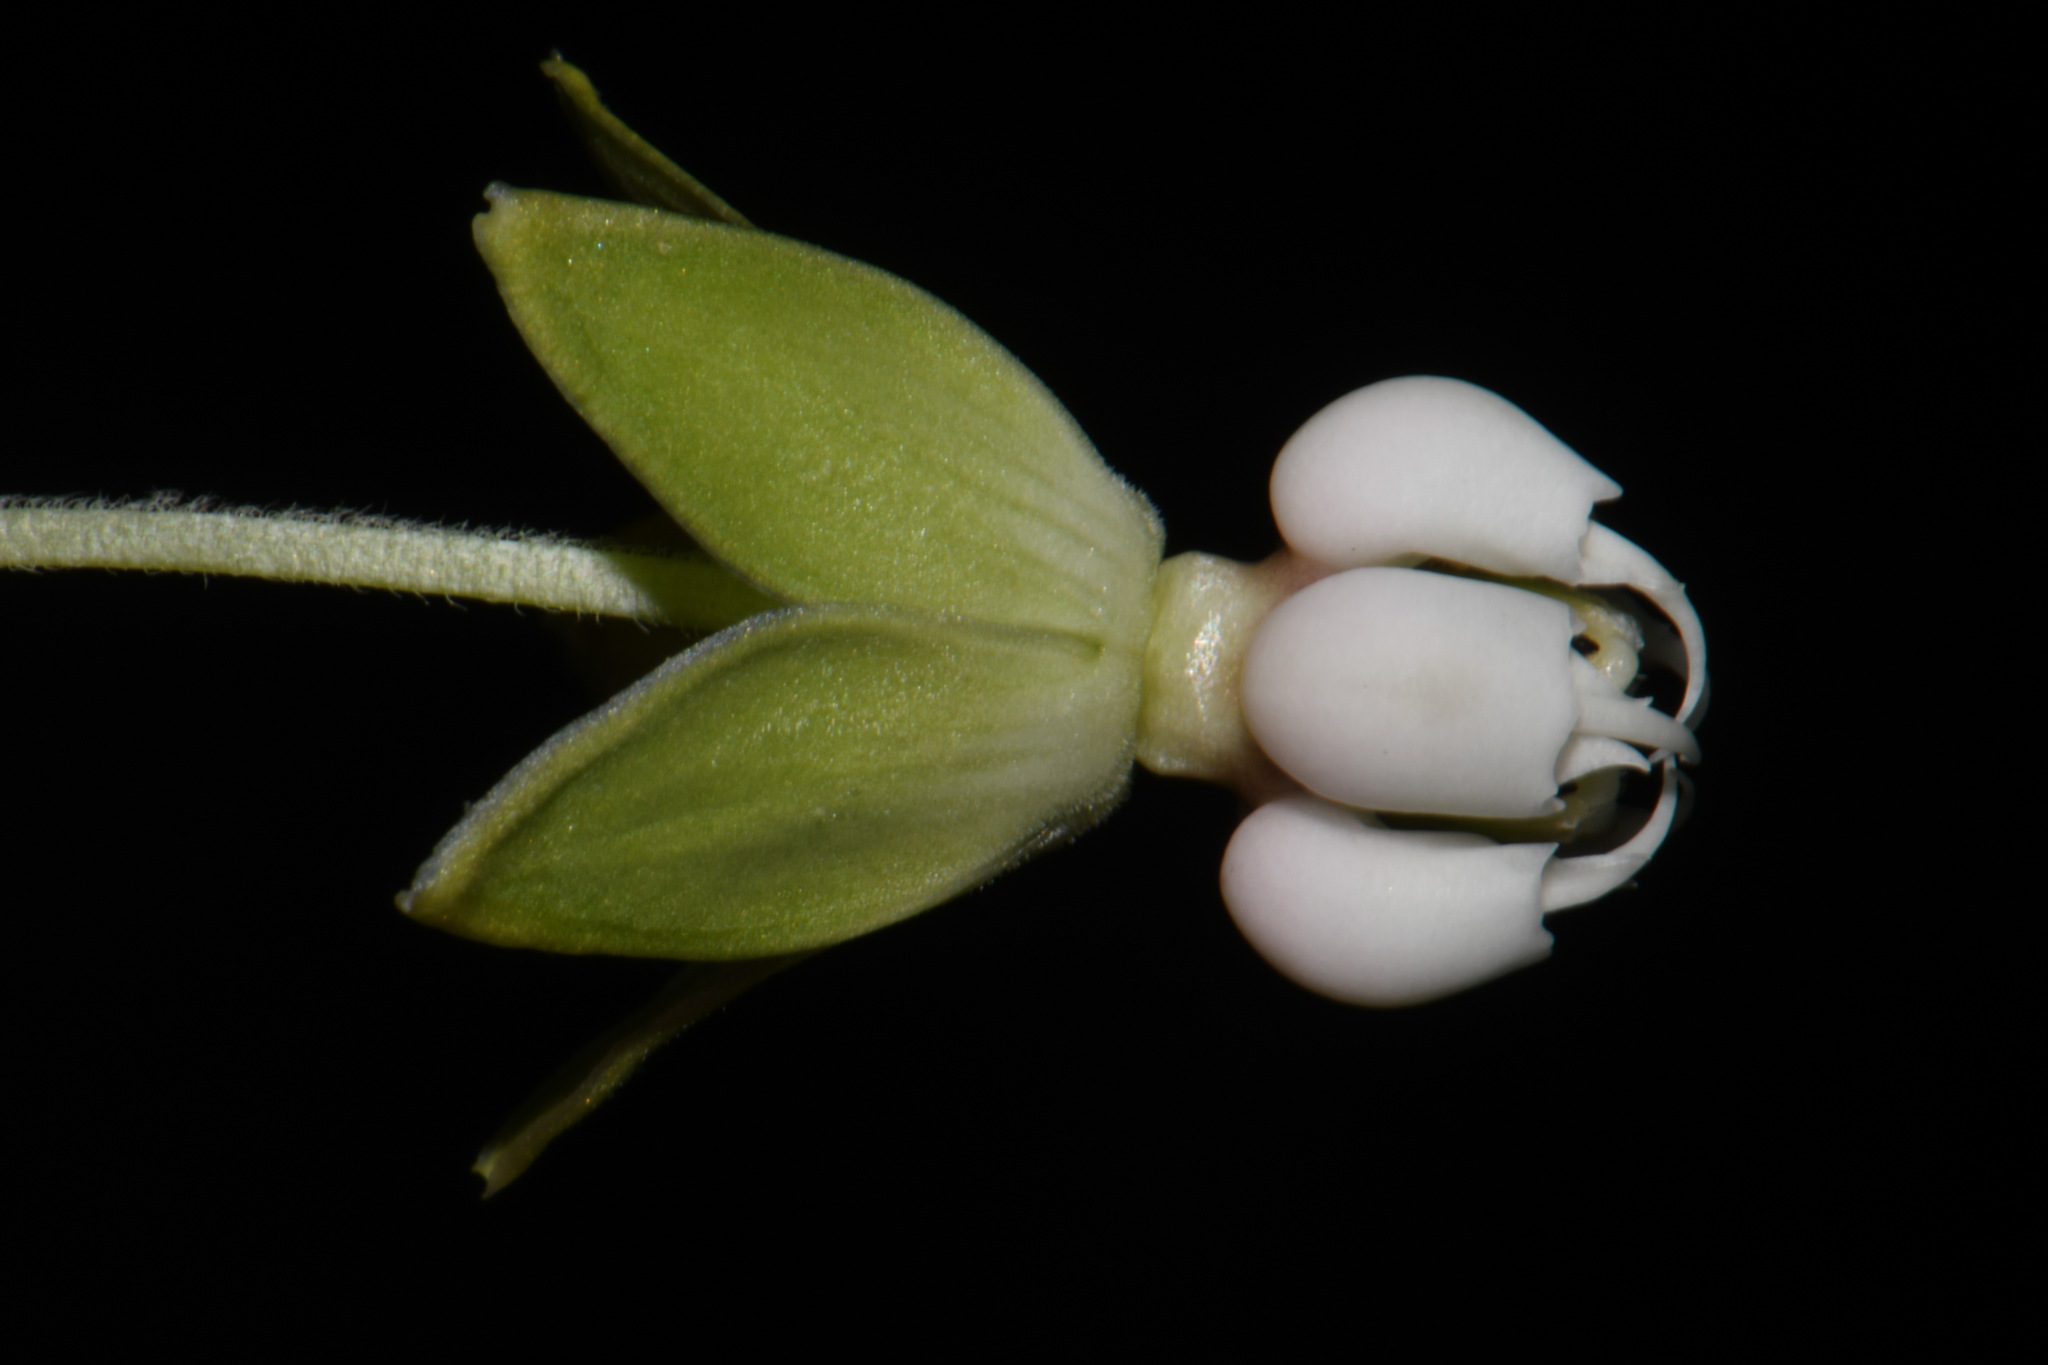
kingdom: Plantae
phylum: Tracheophyta
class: Magnoliopsida
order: Gentianales
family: Apocynaceae
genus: Asclepias
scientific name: Asclepias exaltata
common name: Poke milkweed
